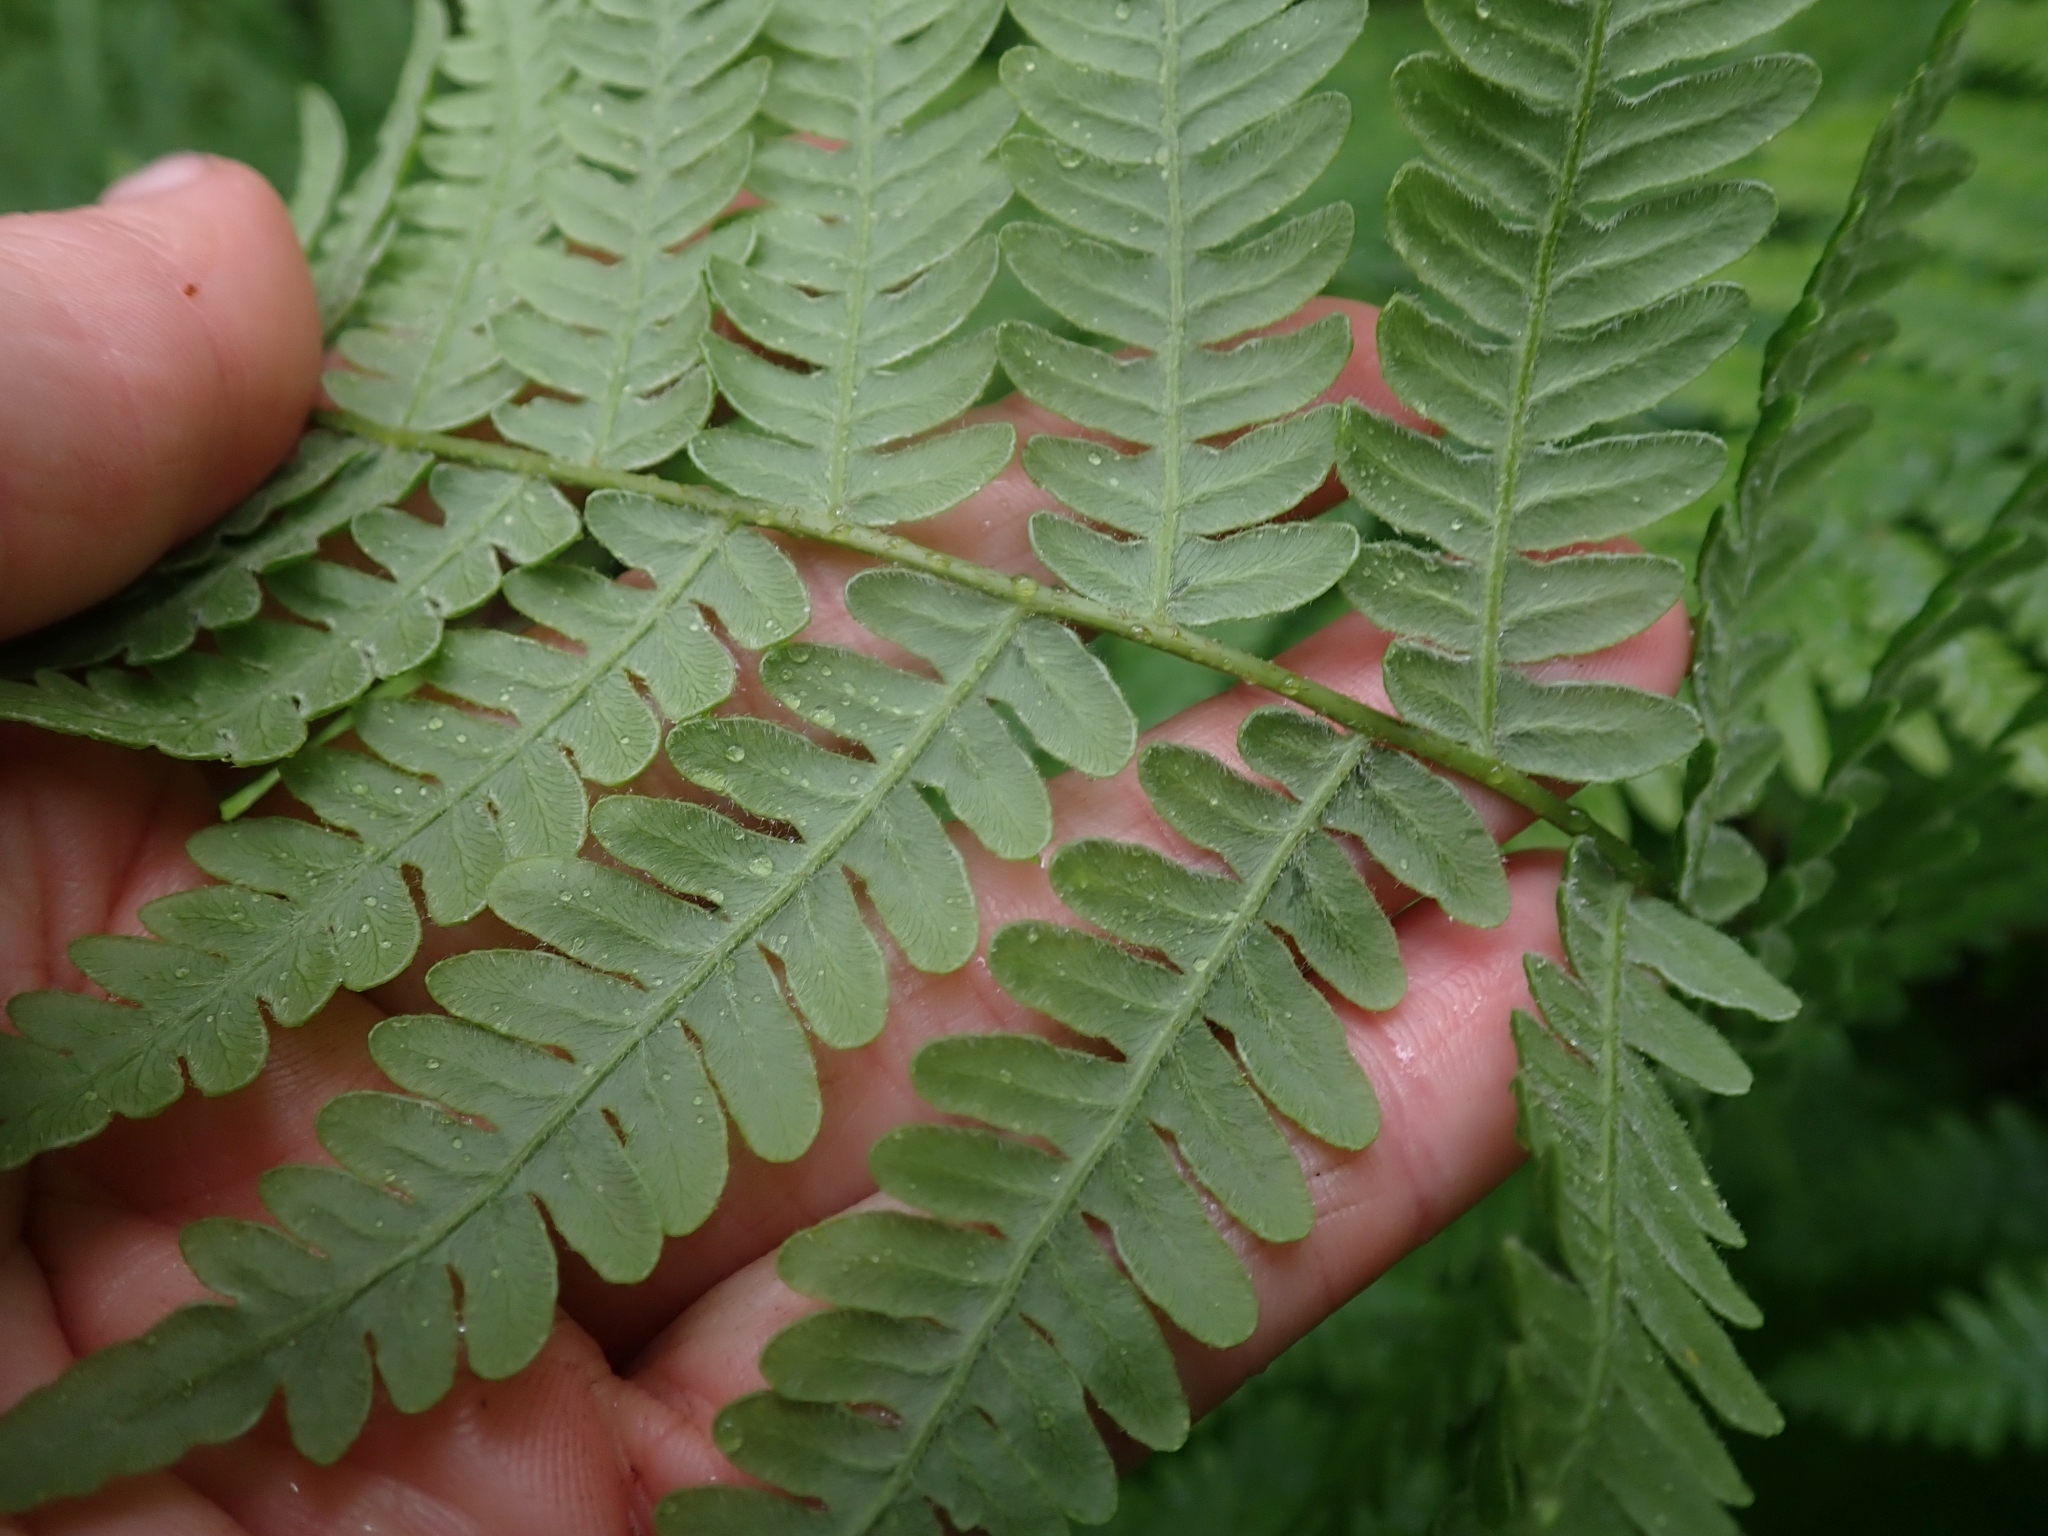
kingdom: Plantae
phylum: Tracheophyta
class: Polypodiopsida
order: Polypodiales
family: Dennstaedtiaceae
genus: Pteridium
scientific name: Pteridium aquilinum
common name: Bracken
